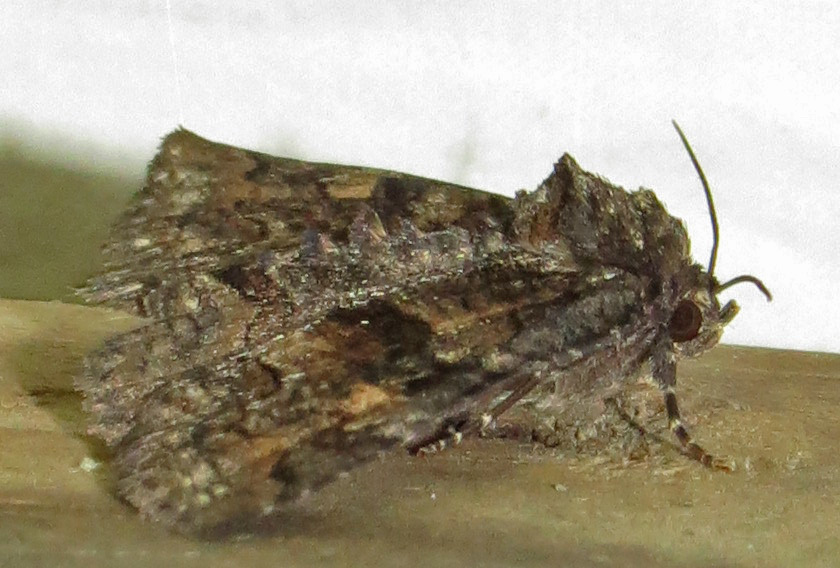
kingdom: Animalia
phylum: Arthropoda
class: Insecta
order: Lepidoptera
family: Erebidae
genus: Zale
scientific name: Zale bethunei
